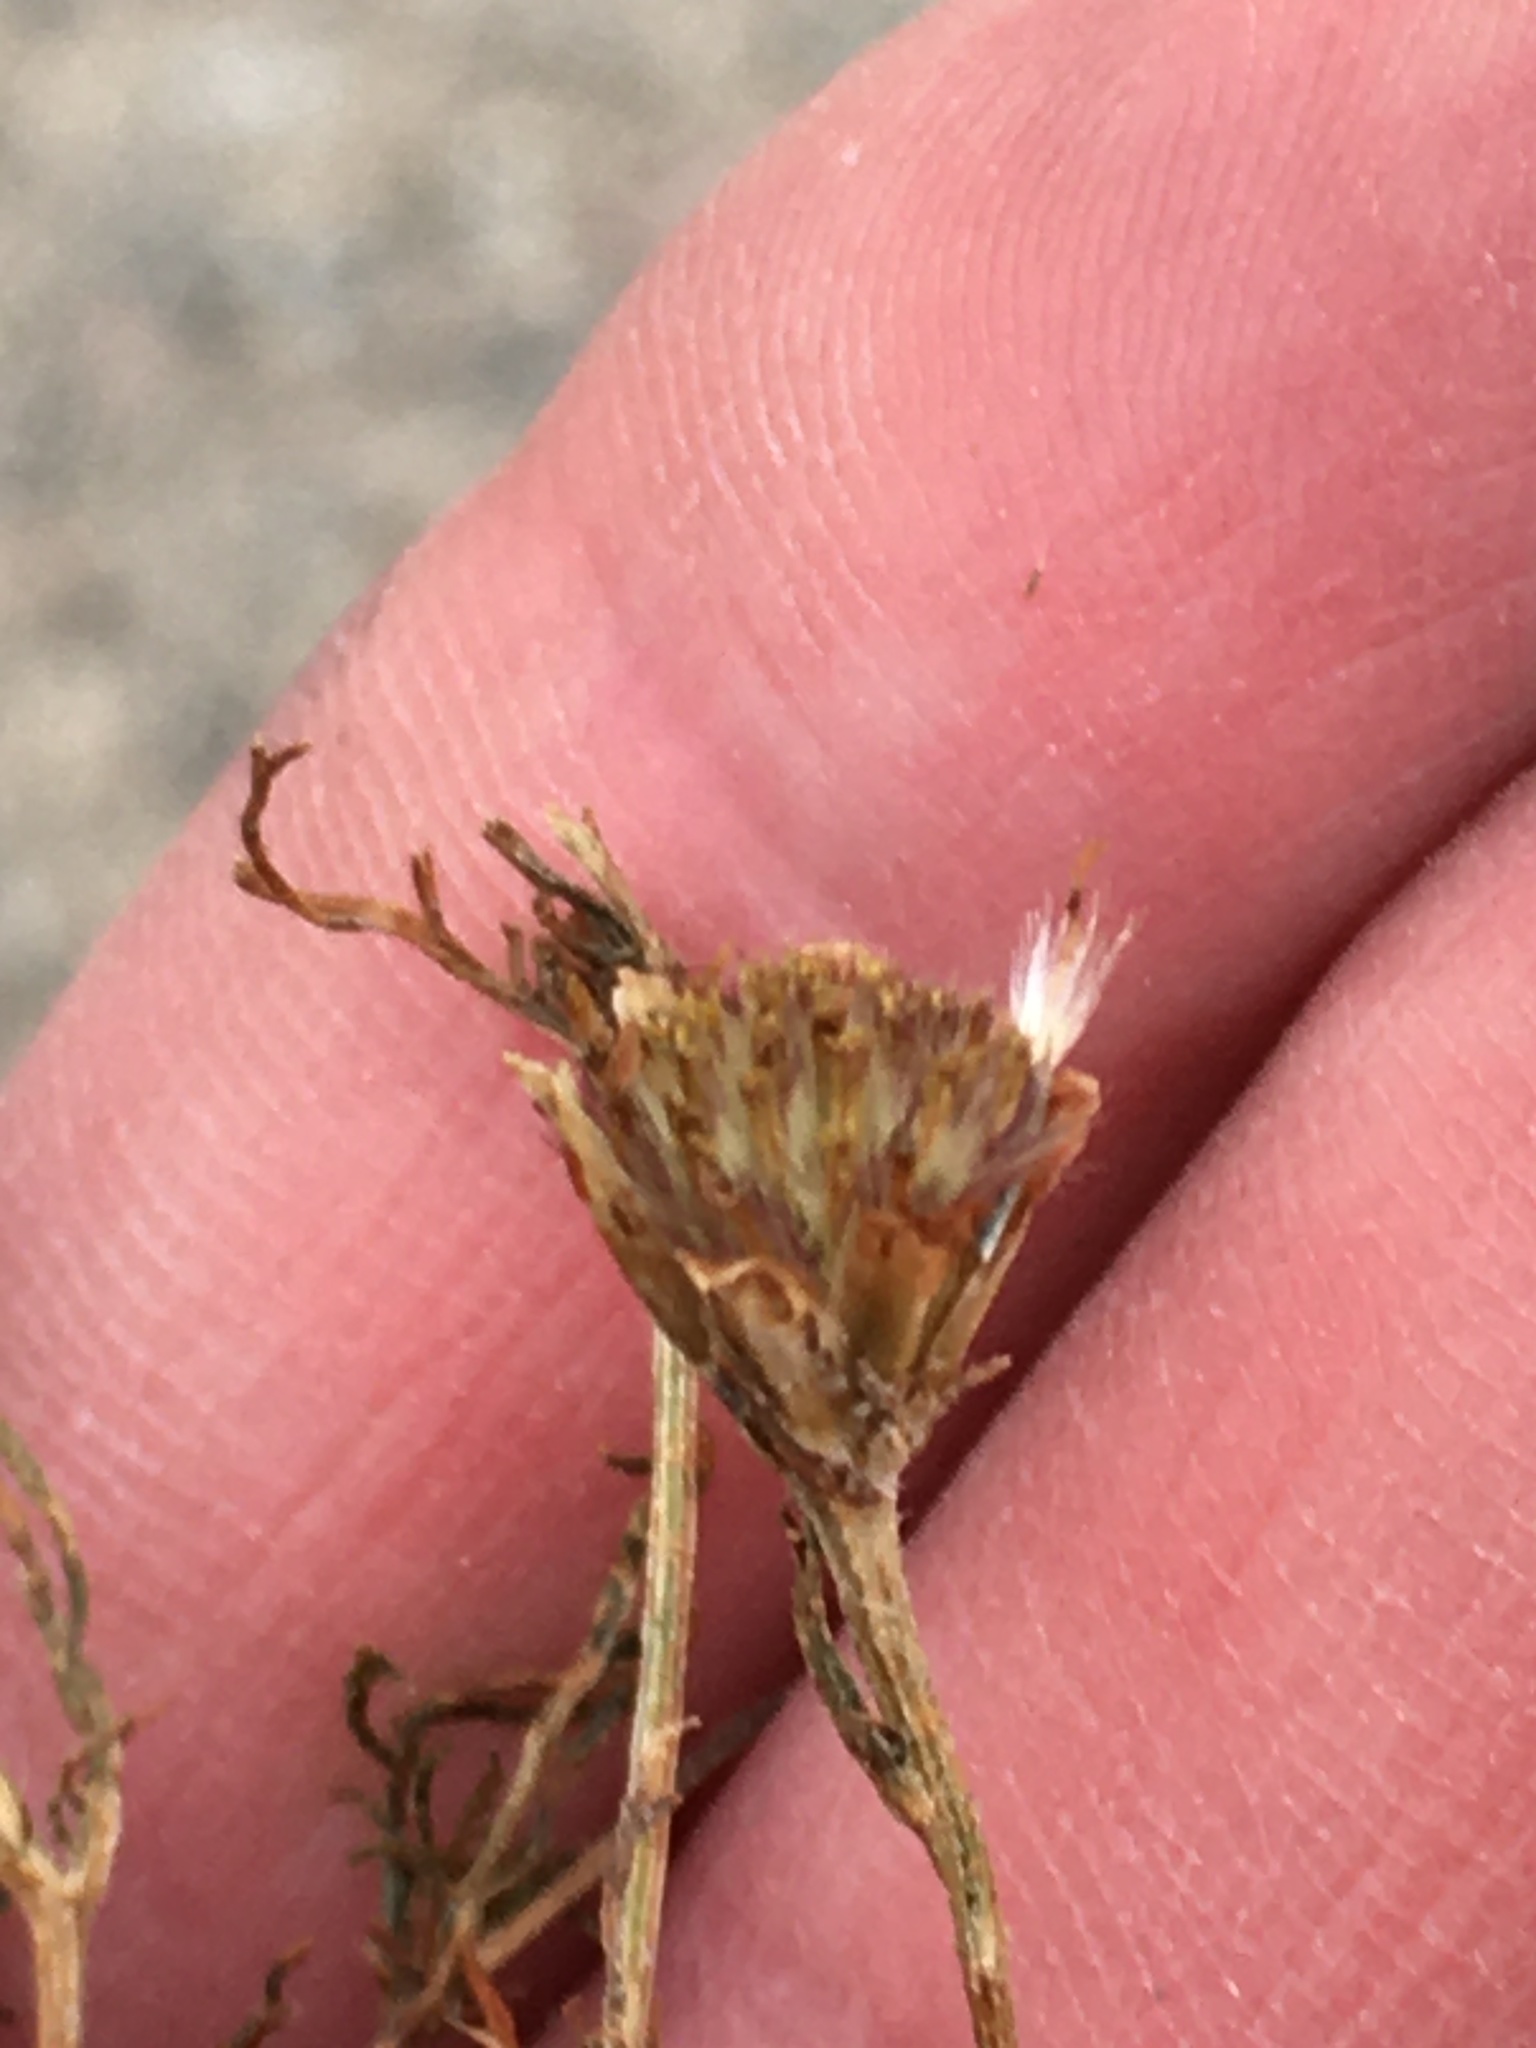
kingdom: Plantae
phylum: Tracheophyta
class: Magnoliopsida
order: Asterales
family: Asteraceae
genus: Dyssodia
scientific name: Dyssodia papposa
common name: Dogweed
